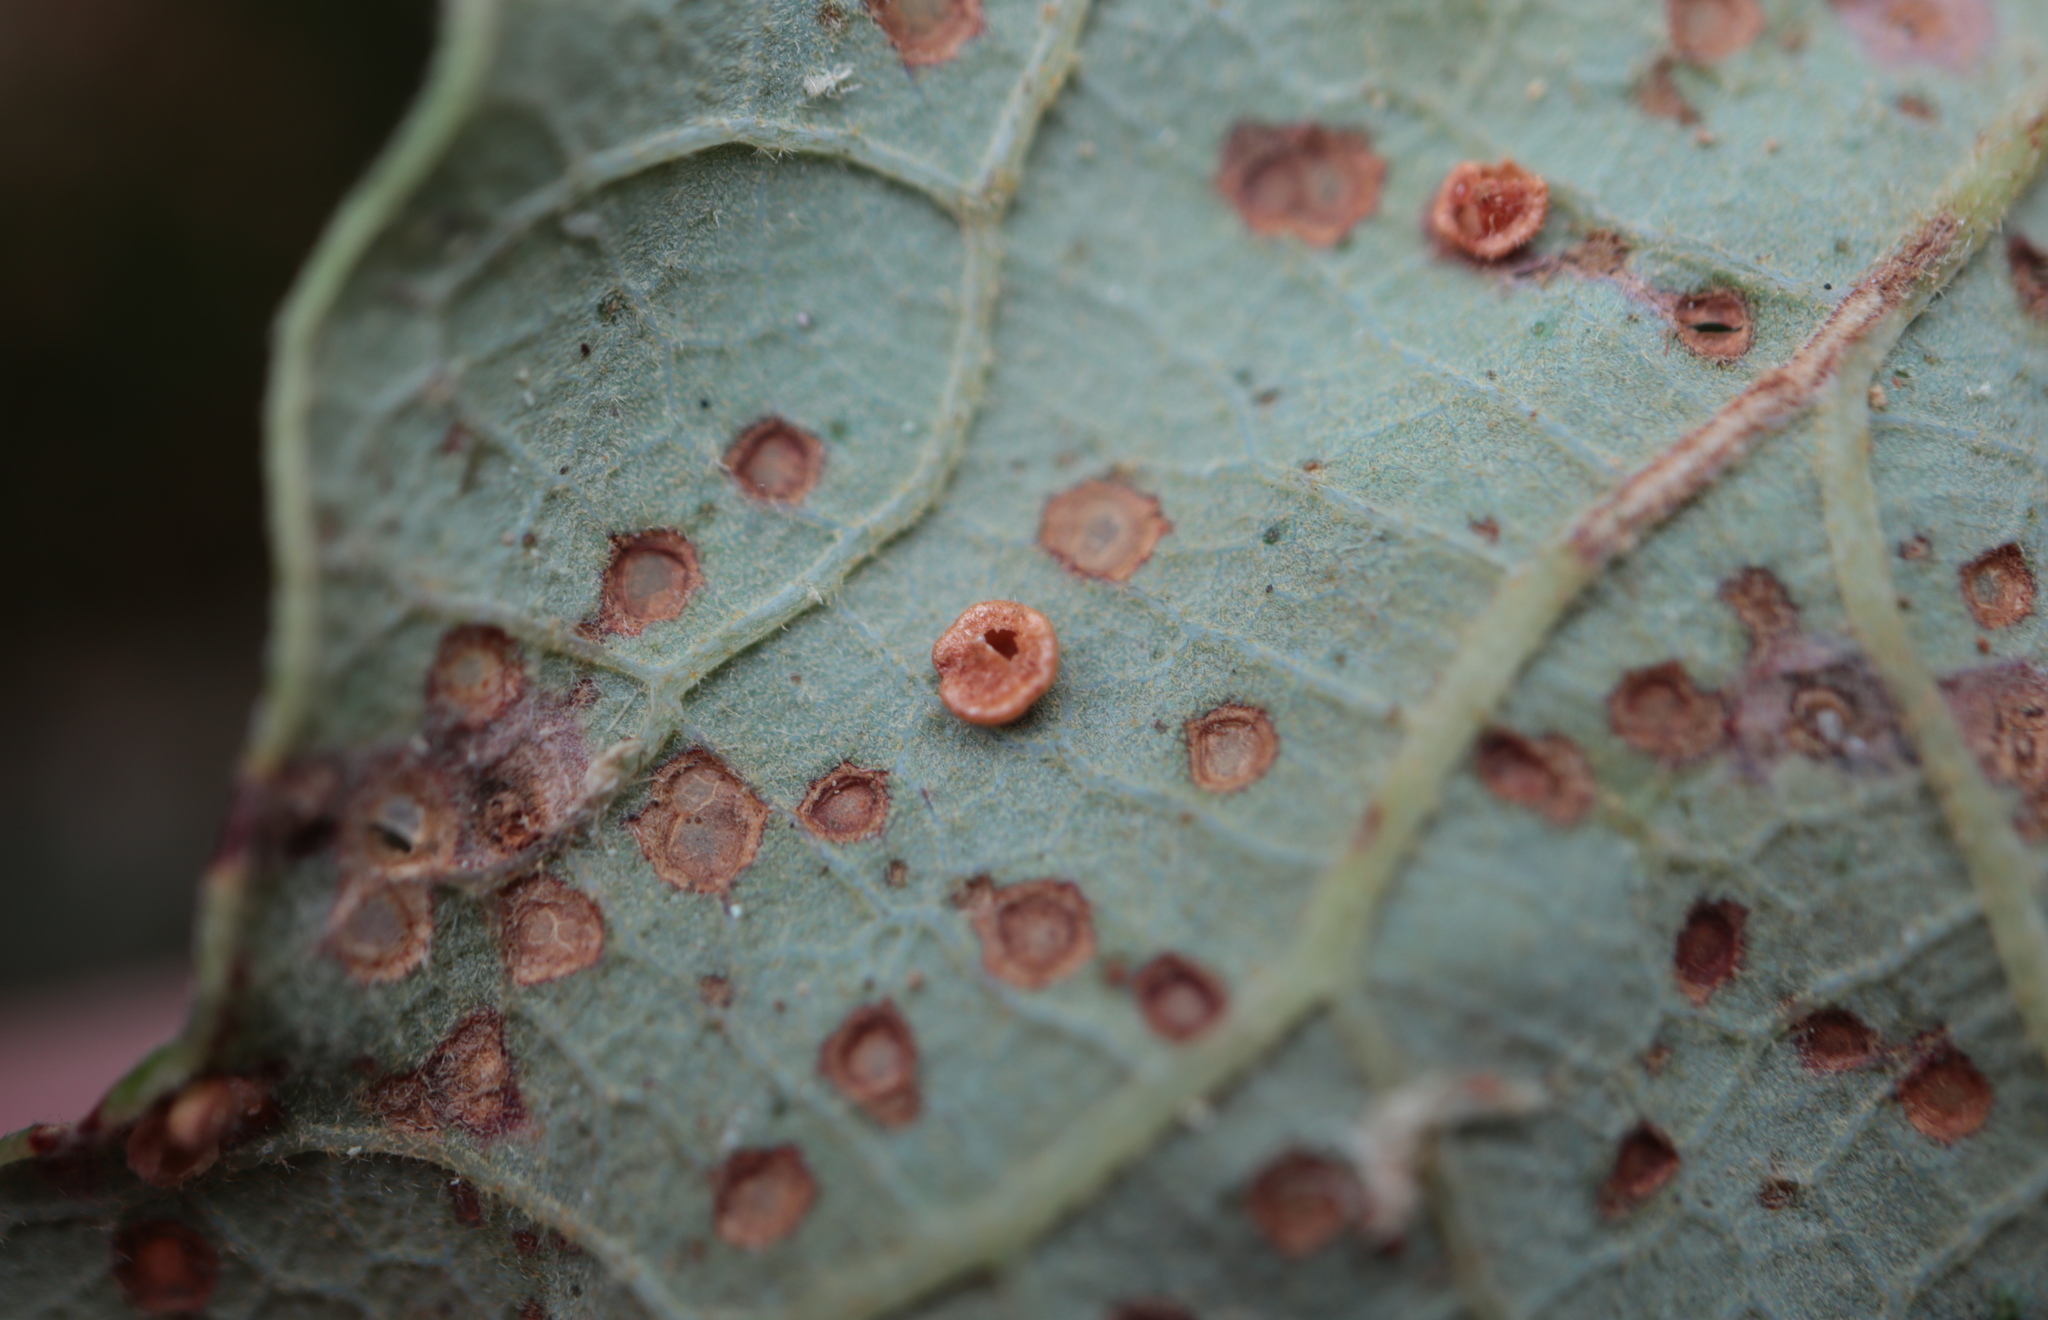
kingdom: Animalia
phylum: Arthropoda
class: Insecta
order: Hymenoptera
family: Cynipidae
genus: Neuroterus
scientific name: Neuroterus
